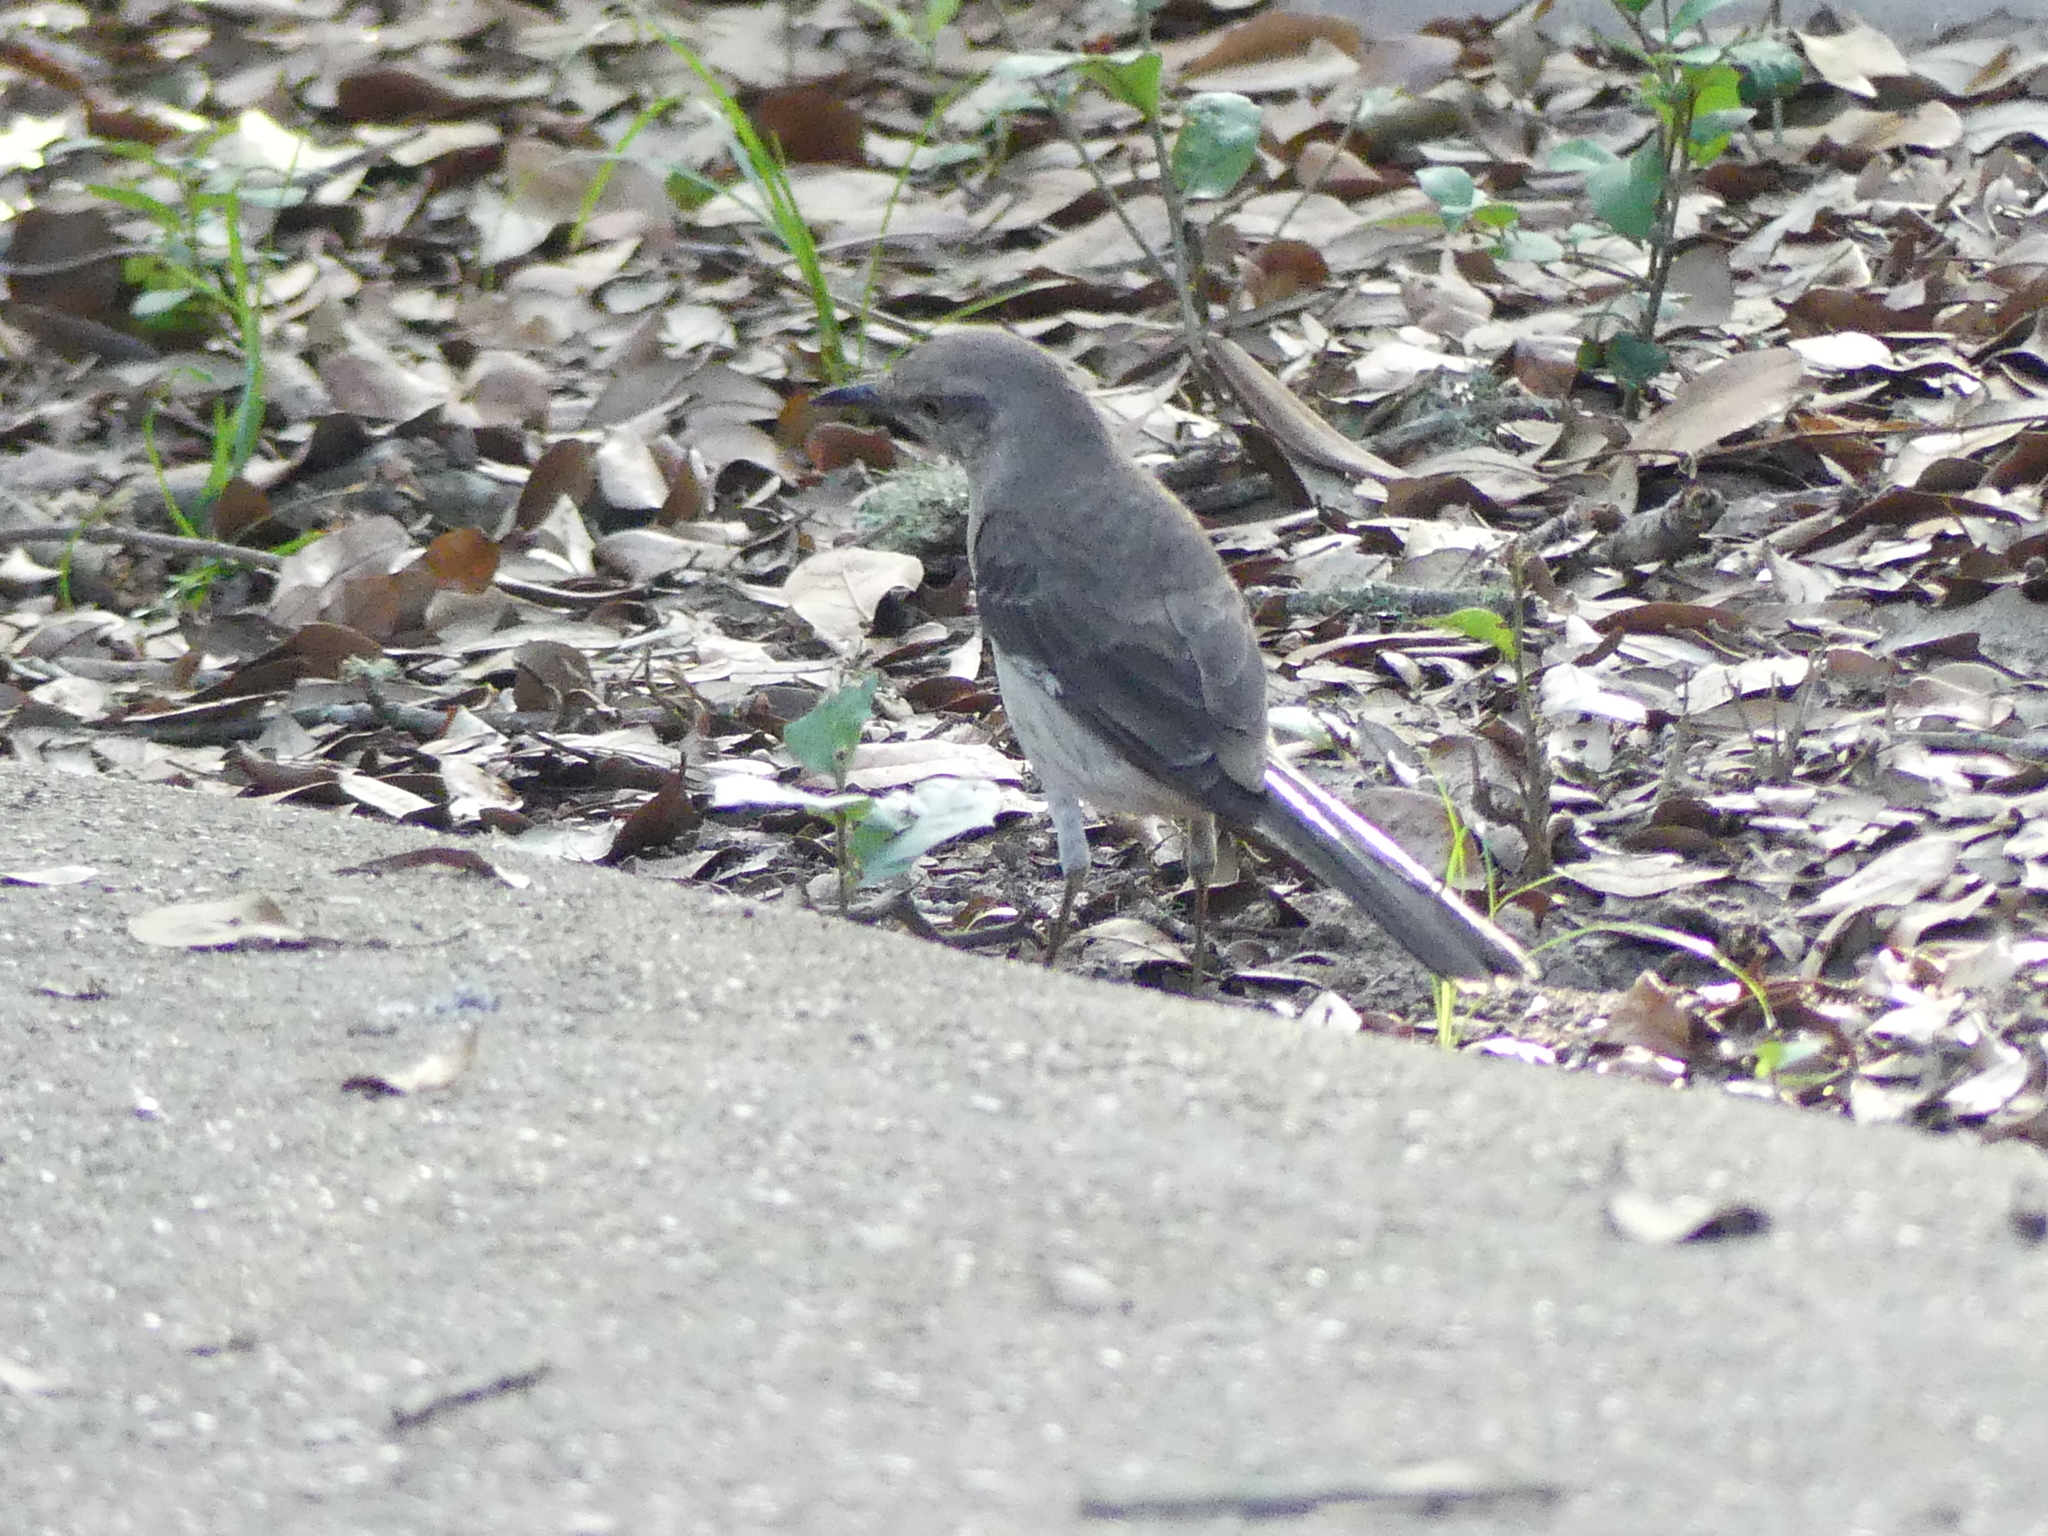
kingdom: Animalia
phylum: Chordata
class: Aves
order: Passeriformes
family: Mimidae
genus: Mimus
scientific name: Mimus polyglottos
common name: Northern mockingbird
